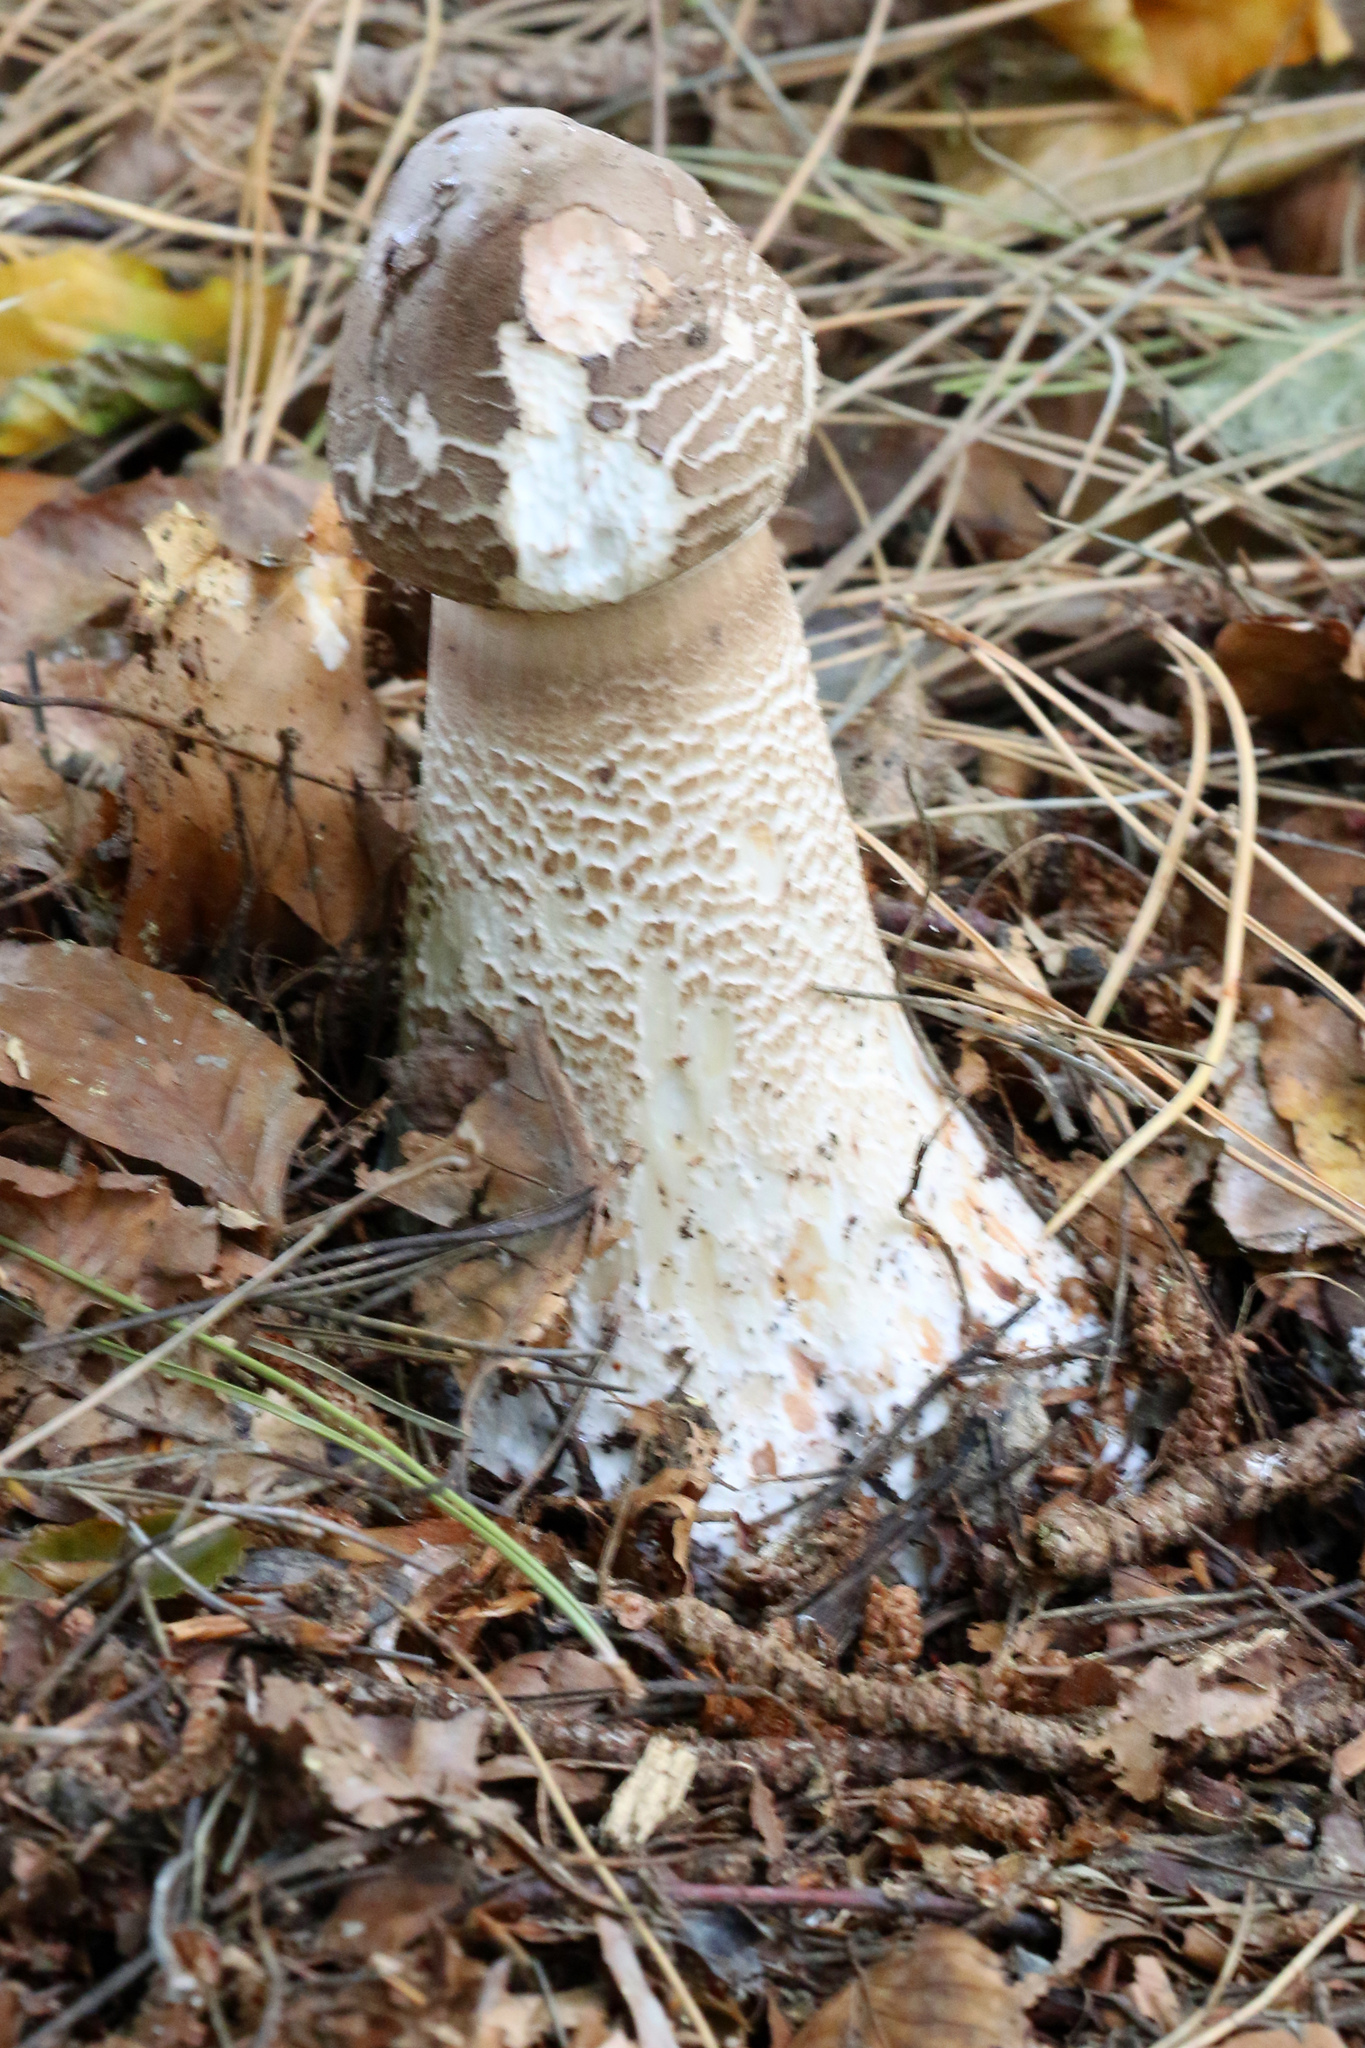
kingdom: Fungi
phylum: Basidiomycota
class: Agaricomycetes
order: Agaricales
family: Agaricaceae
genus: Macrolepiota
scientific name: Macrolepiota procera
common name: Parasol
